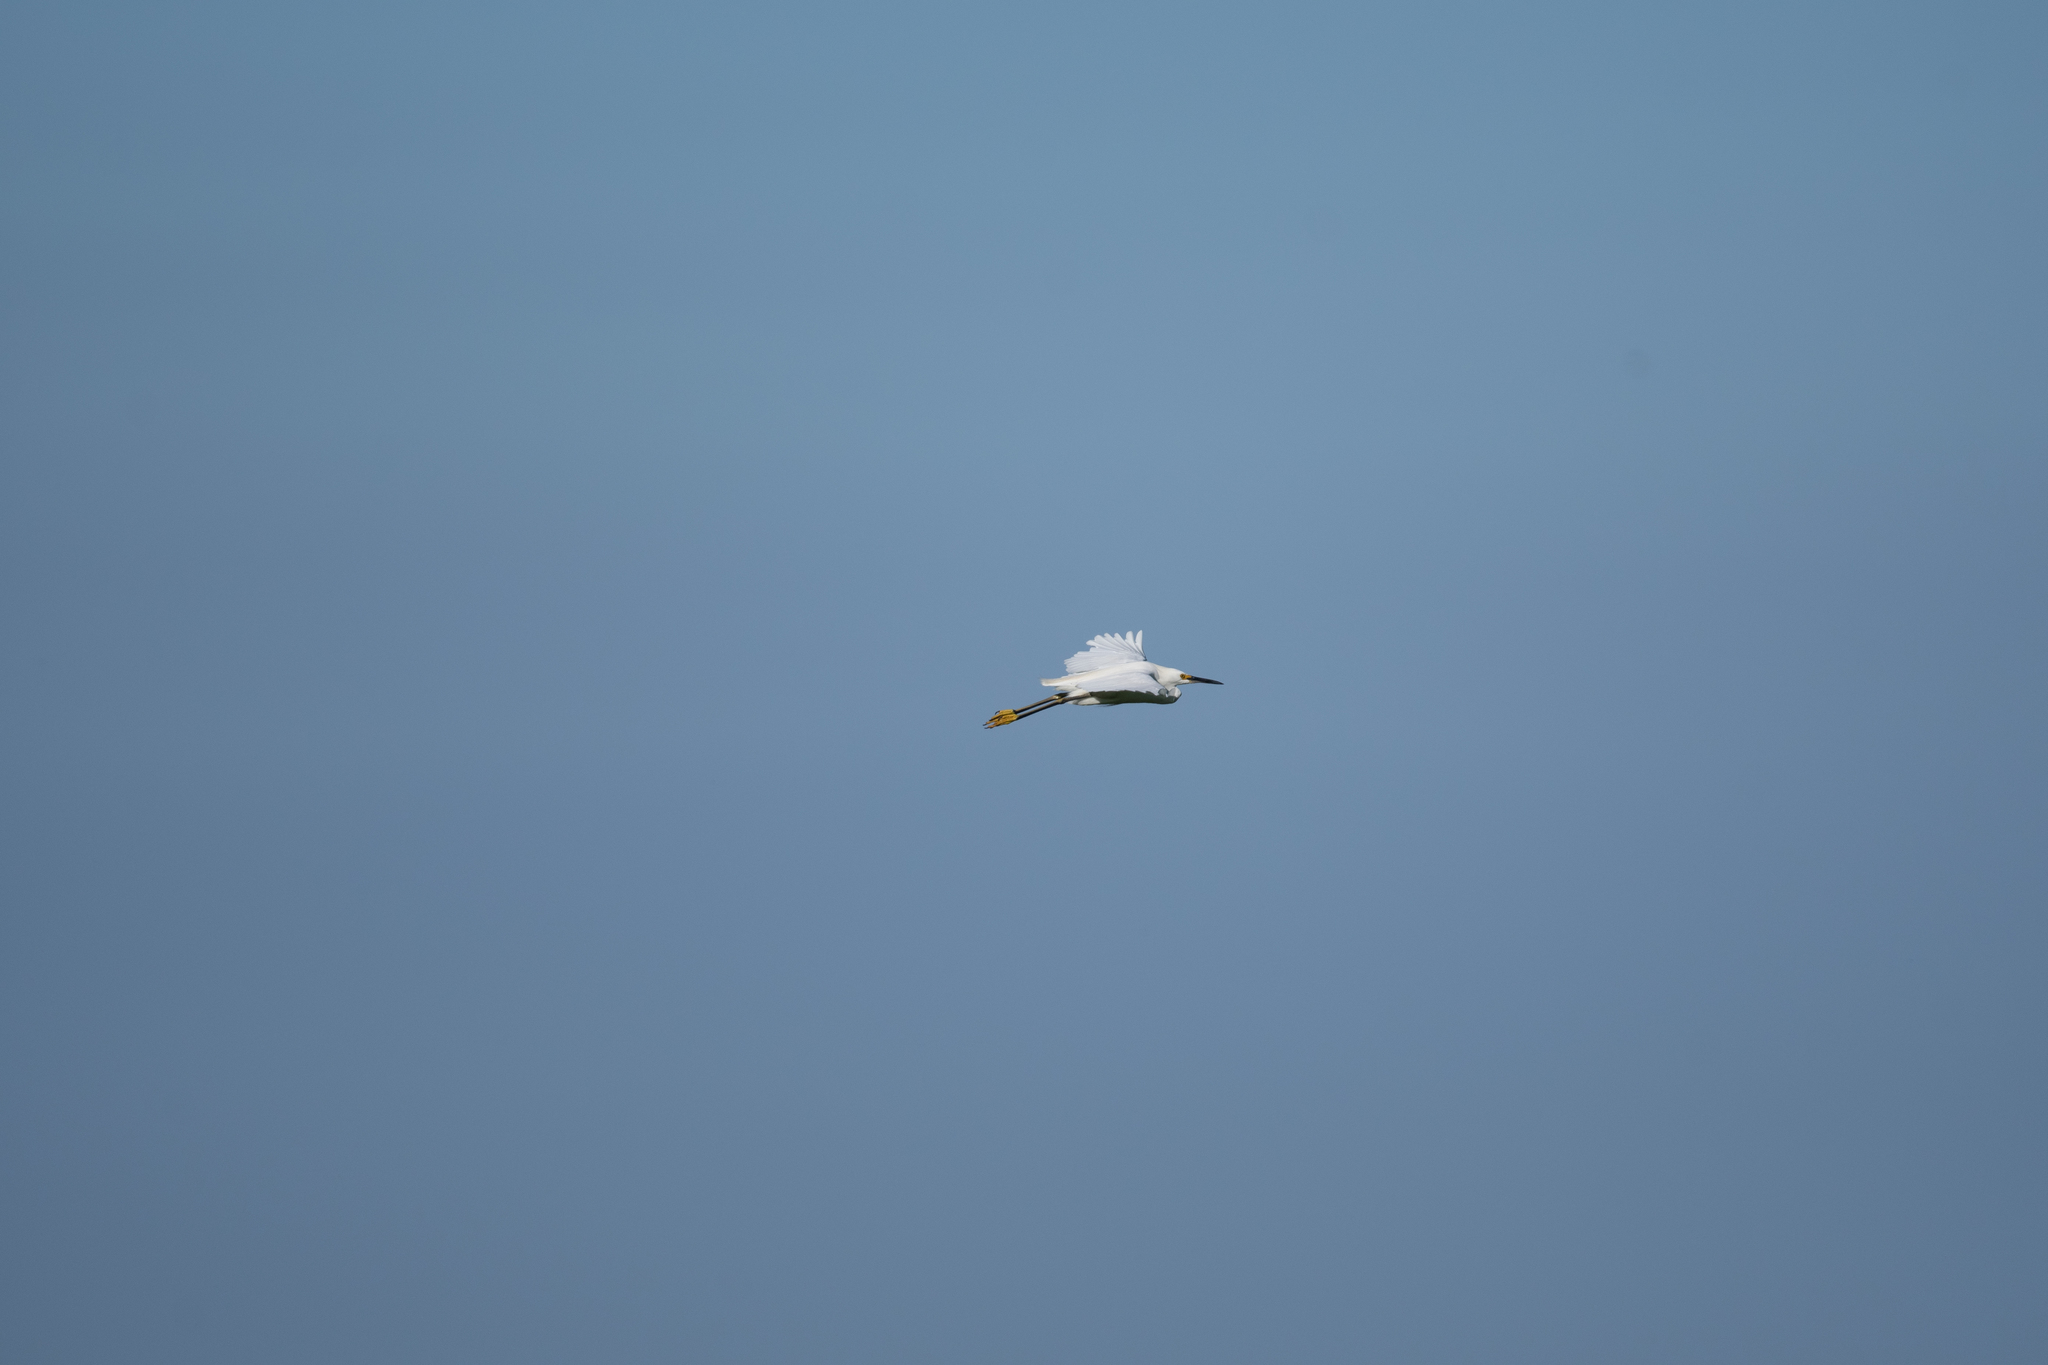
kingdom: Animalia
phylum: Chordata
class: Aves
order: Pelecaniformes
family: Ardeidae
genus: Egretta
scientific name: Egretta thula
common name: Snowy egret
